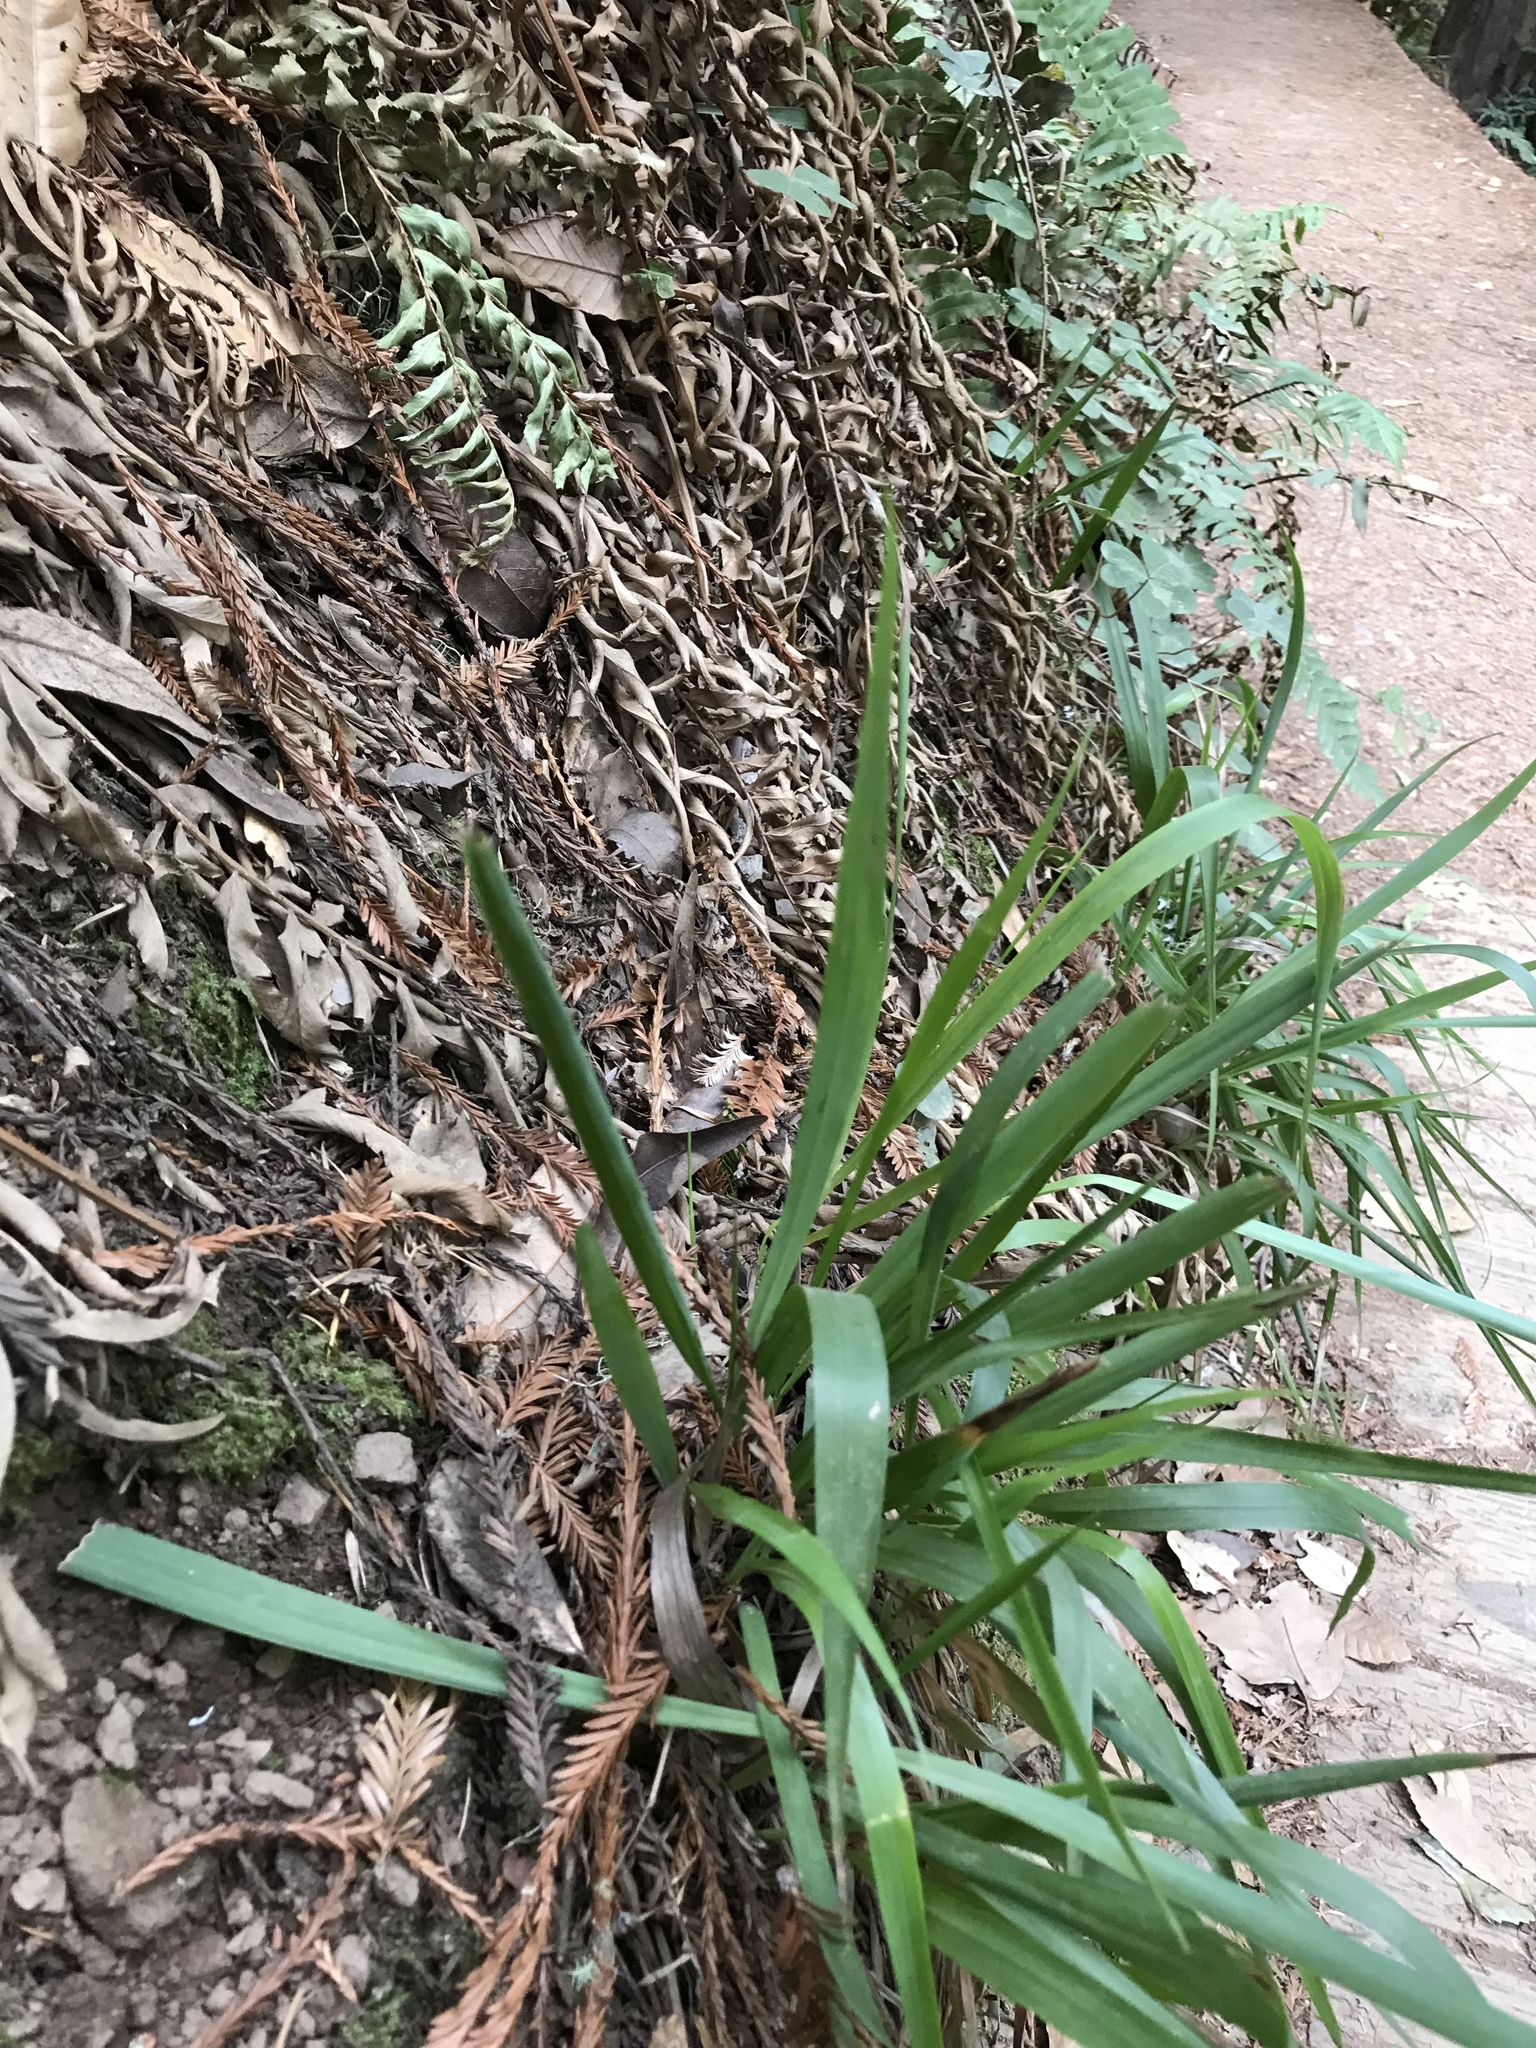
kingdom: Plantae
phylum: Tracheophyta
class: Liliopsida
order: Poales
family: Poaceae
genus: Anthoxanthum
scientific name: Anthoxanthum occidentale
